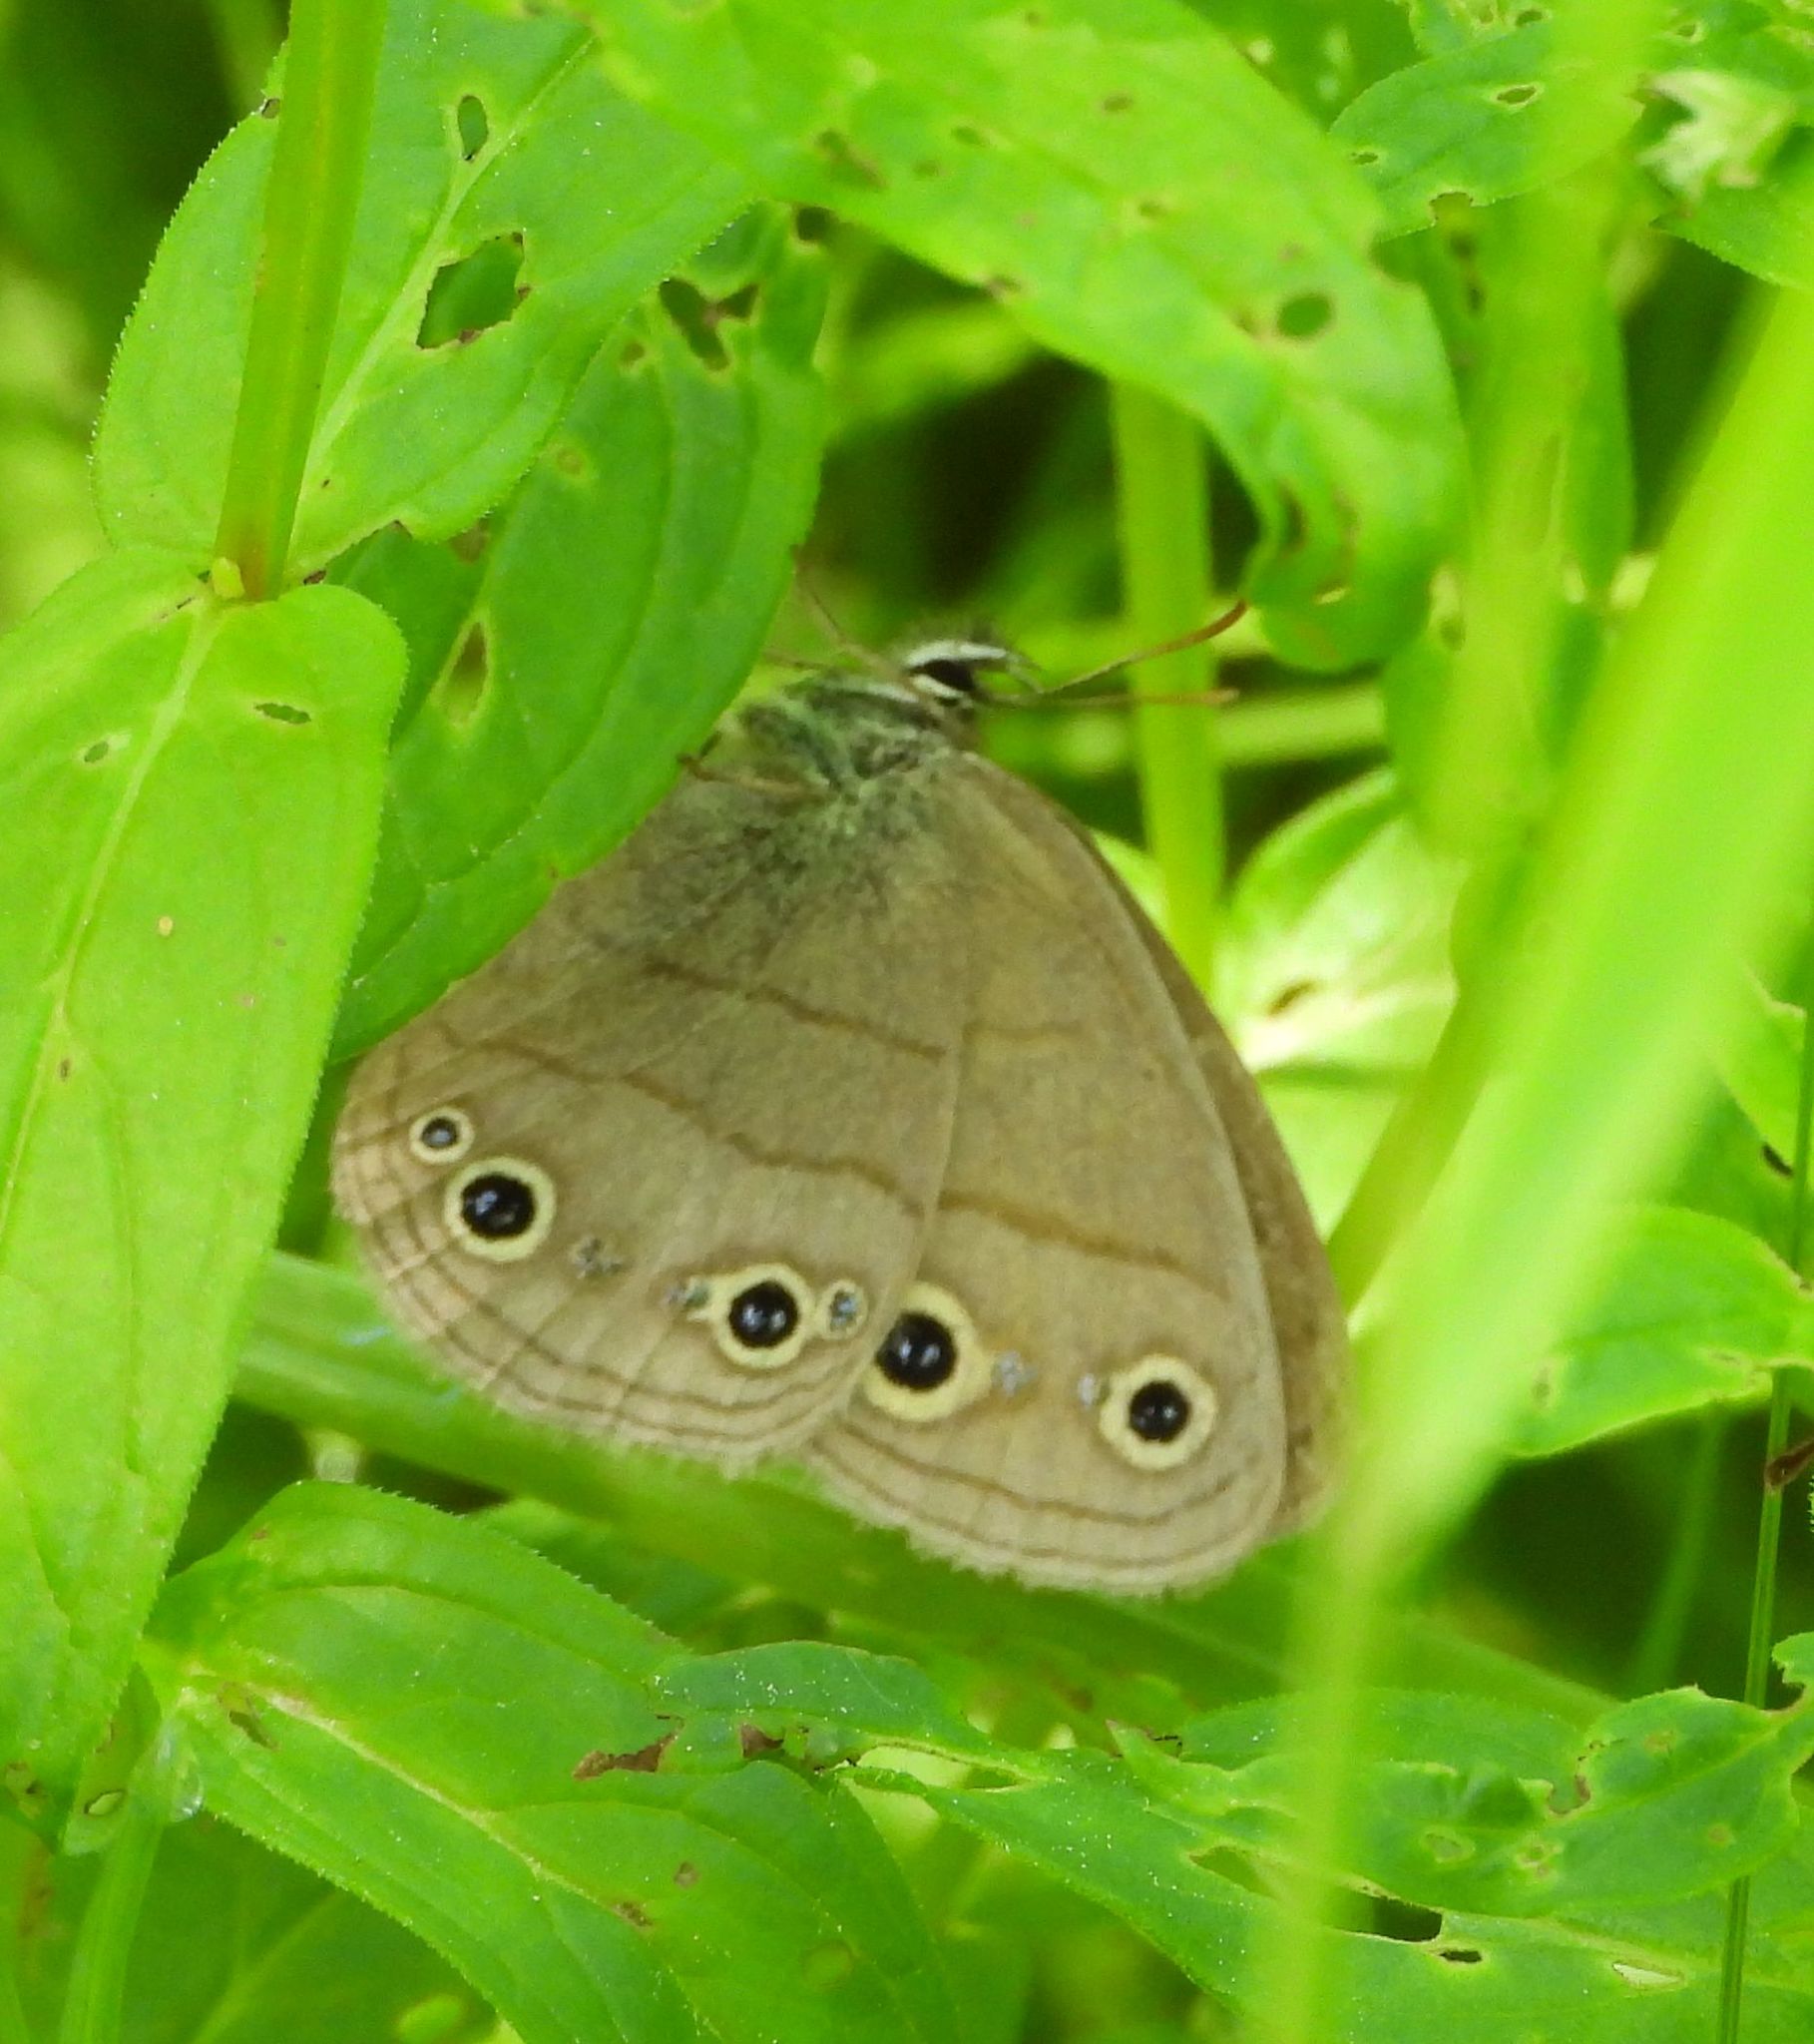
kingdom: Animalia
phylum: Arthropoda
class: Insecta
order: Lepidoptera
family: Nymphalidae
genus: Euptychia
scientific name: Euptychia cymela
